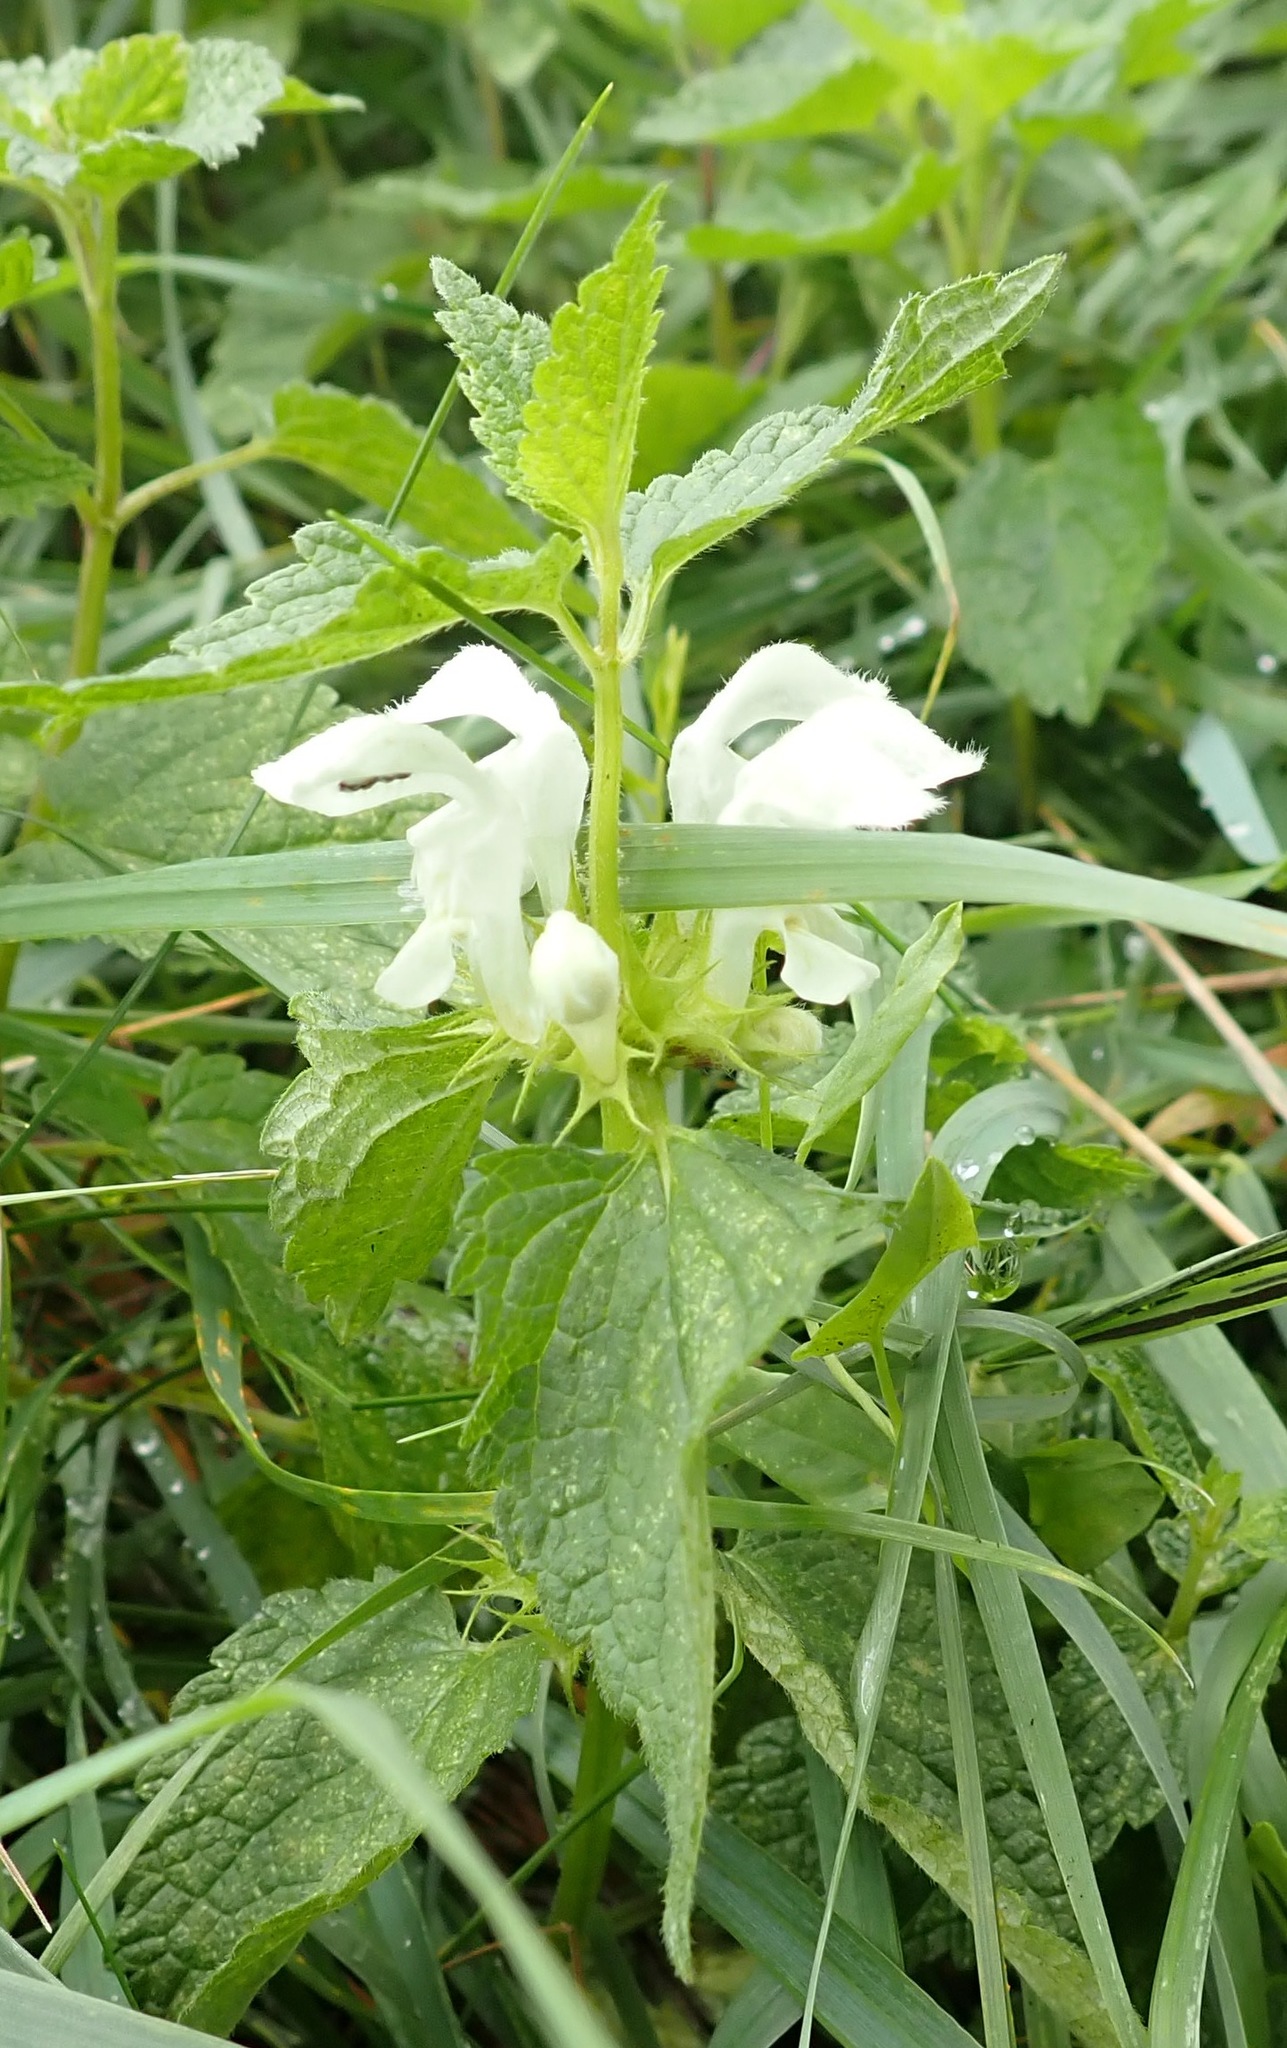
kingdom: Plantae
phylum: Tracheophyta
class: Magnoliopsida
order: Lamiales
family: Lamiaceae
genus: Lamium
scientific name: Lamium album
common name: White dead-nettle
